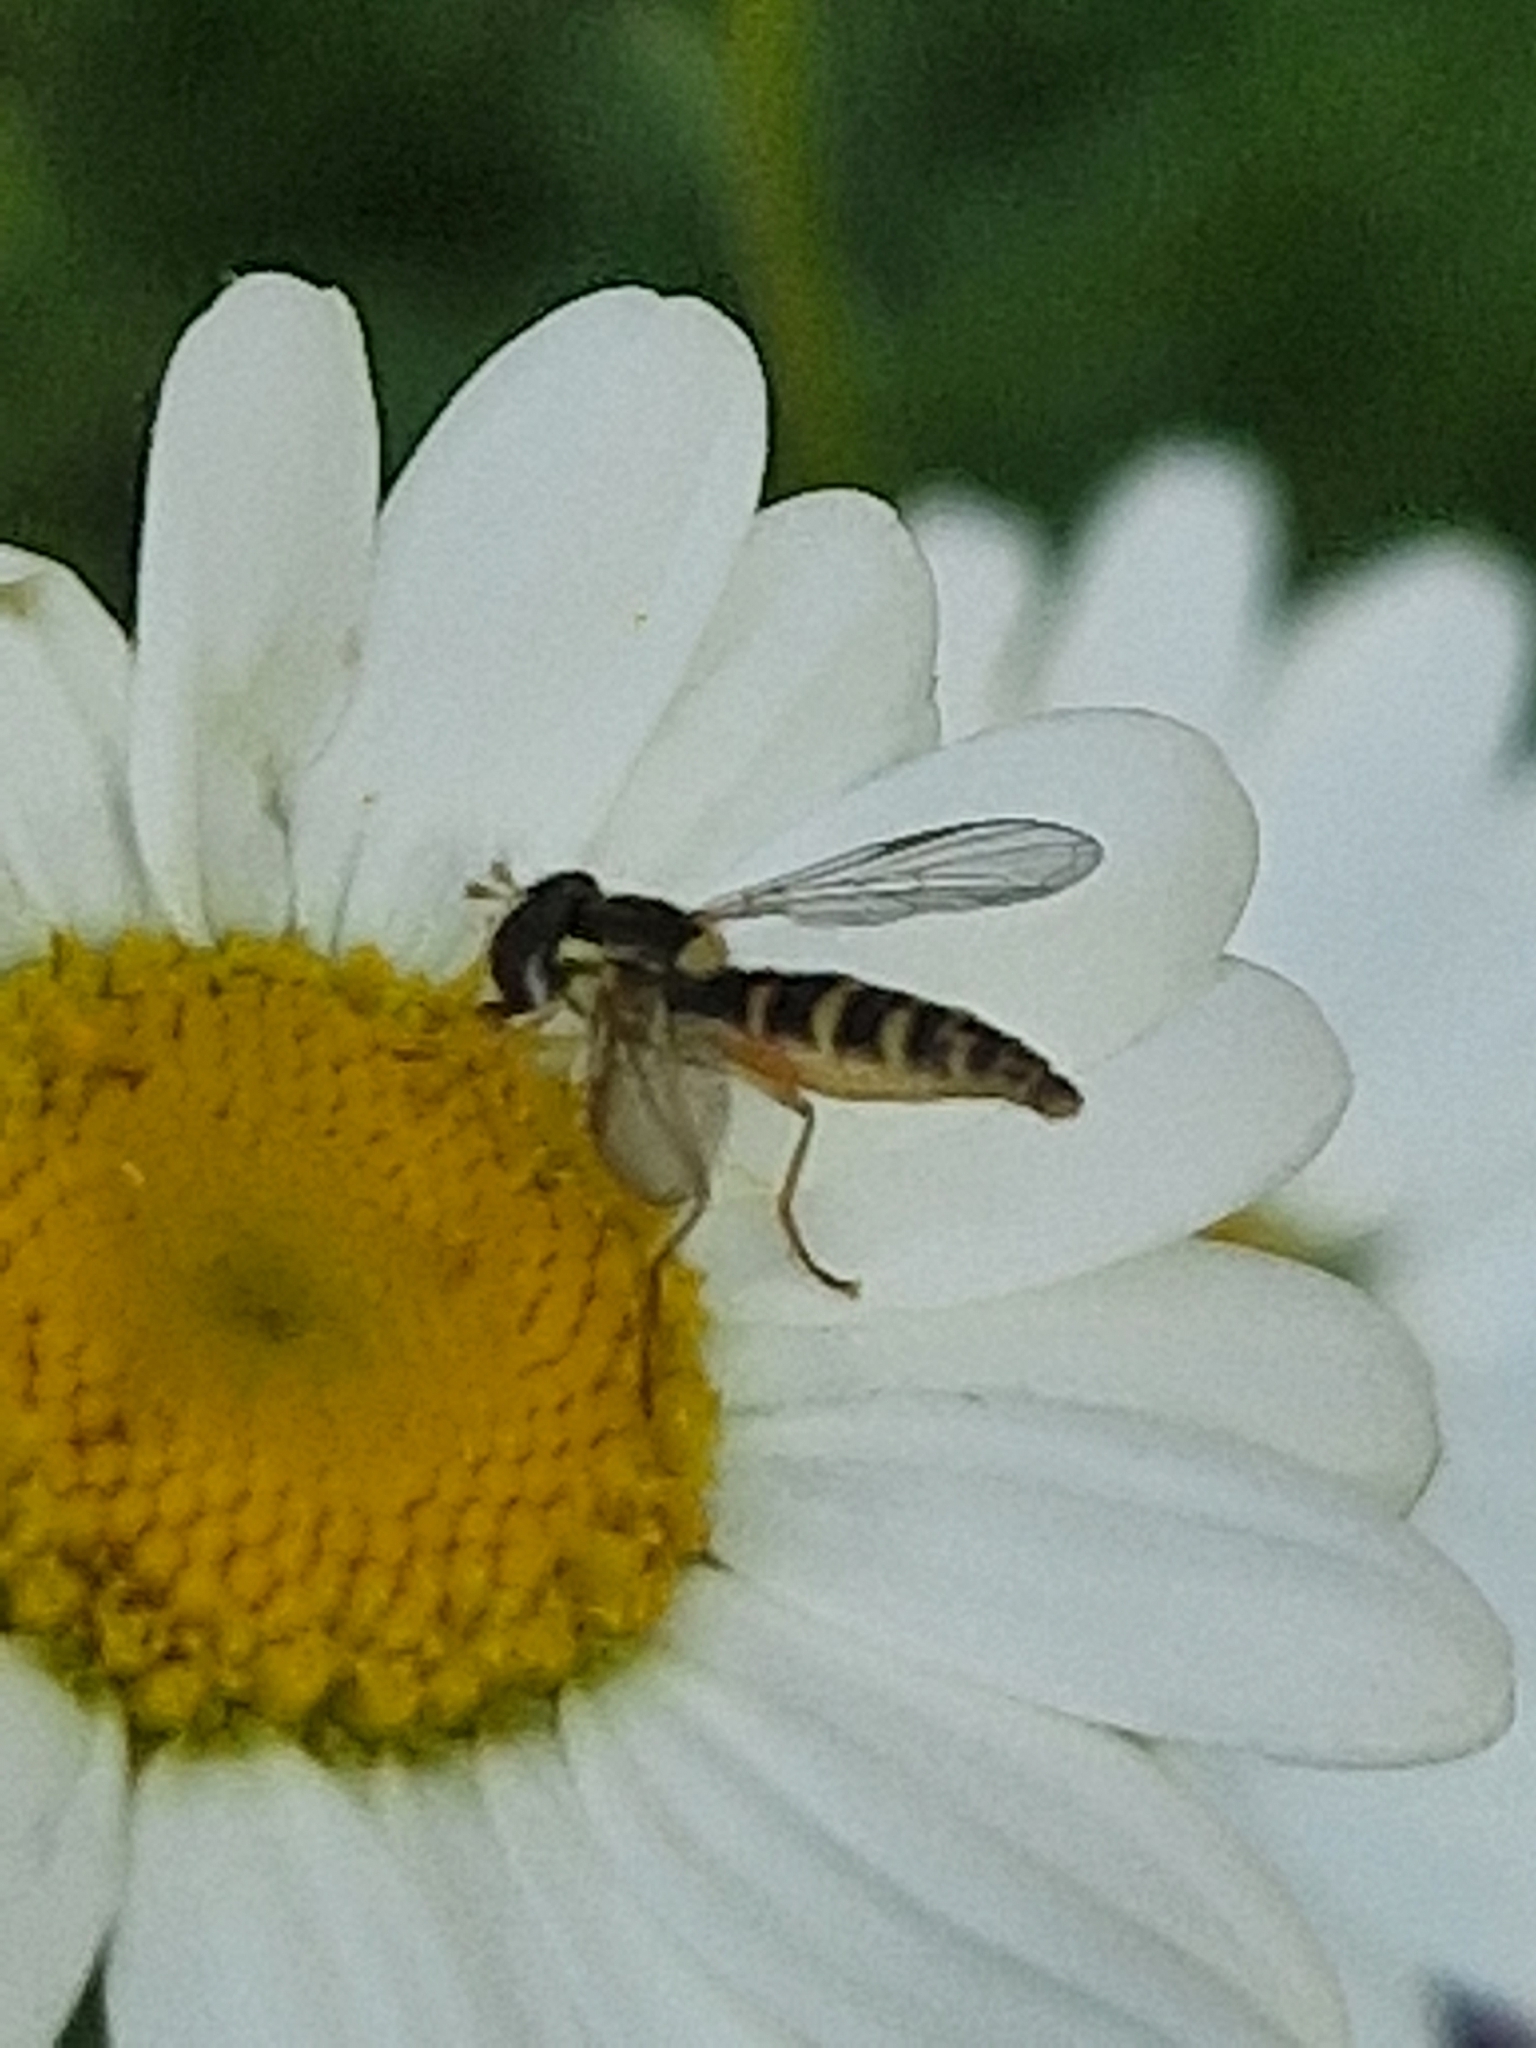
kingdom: Animalia
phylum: Arthropoda
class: Insecta
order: Diptera
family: Syrphidae
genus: Sphaerophoria
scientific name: Sphaerophoria
